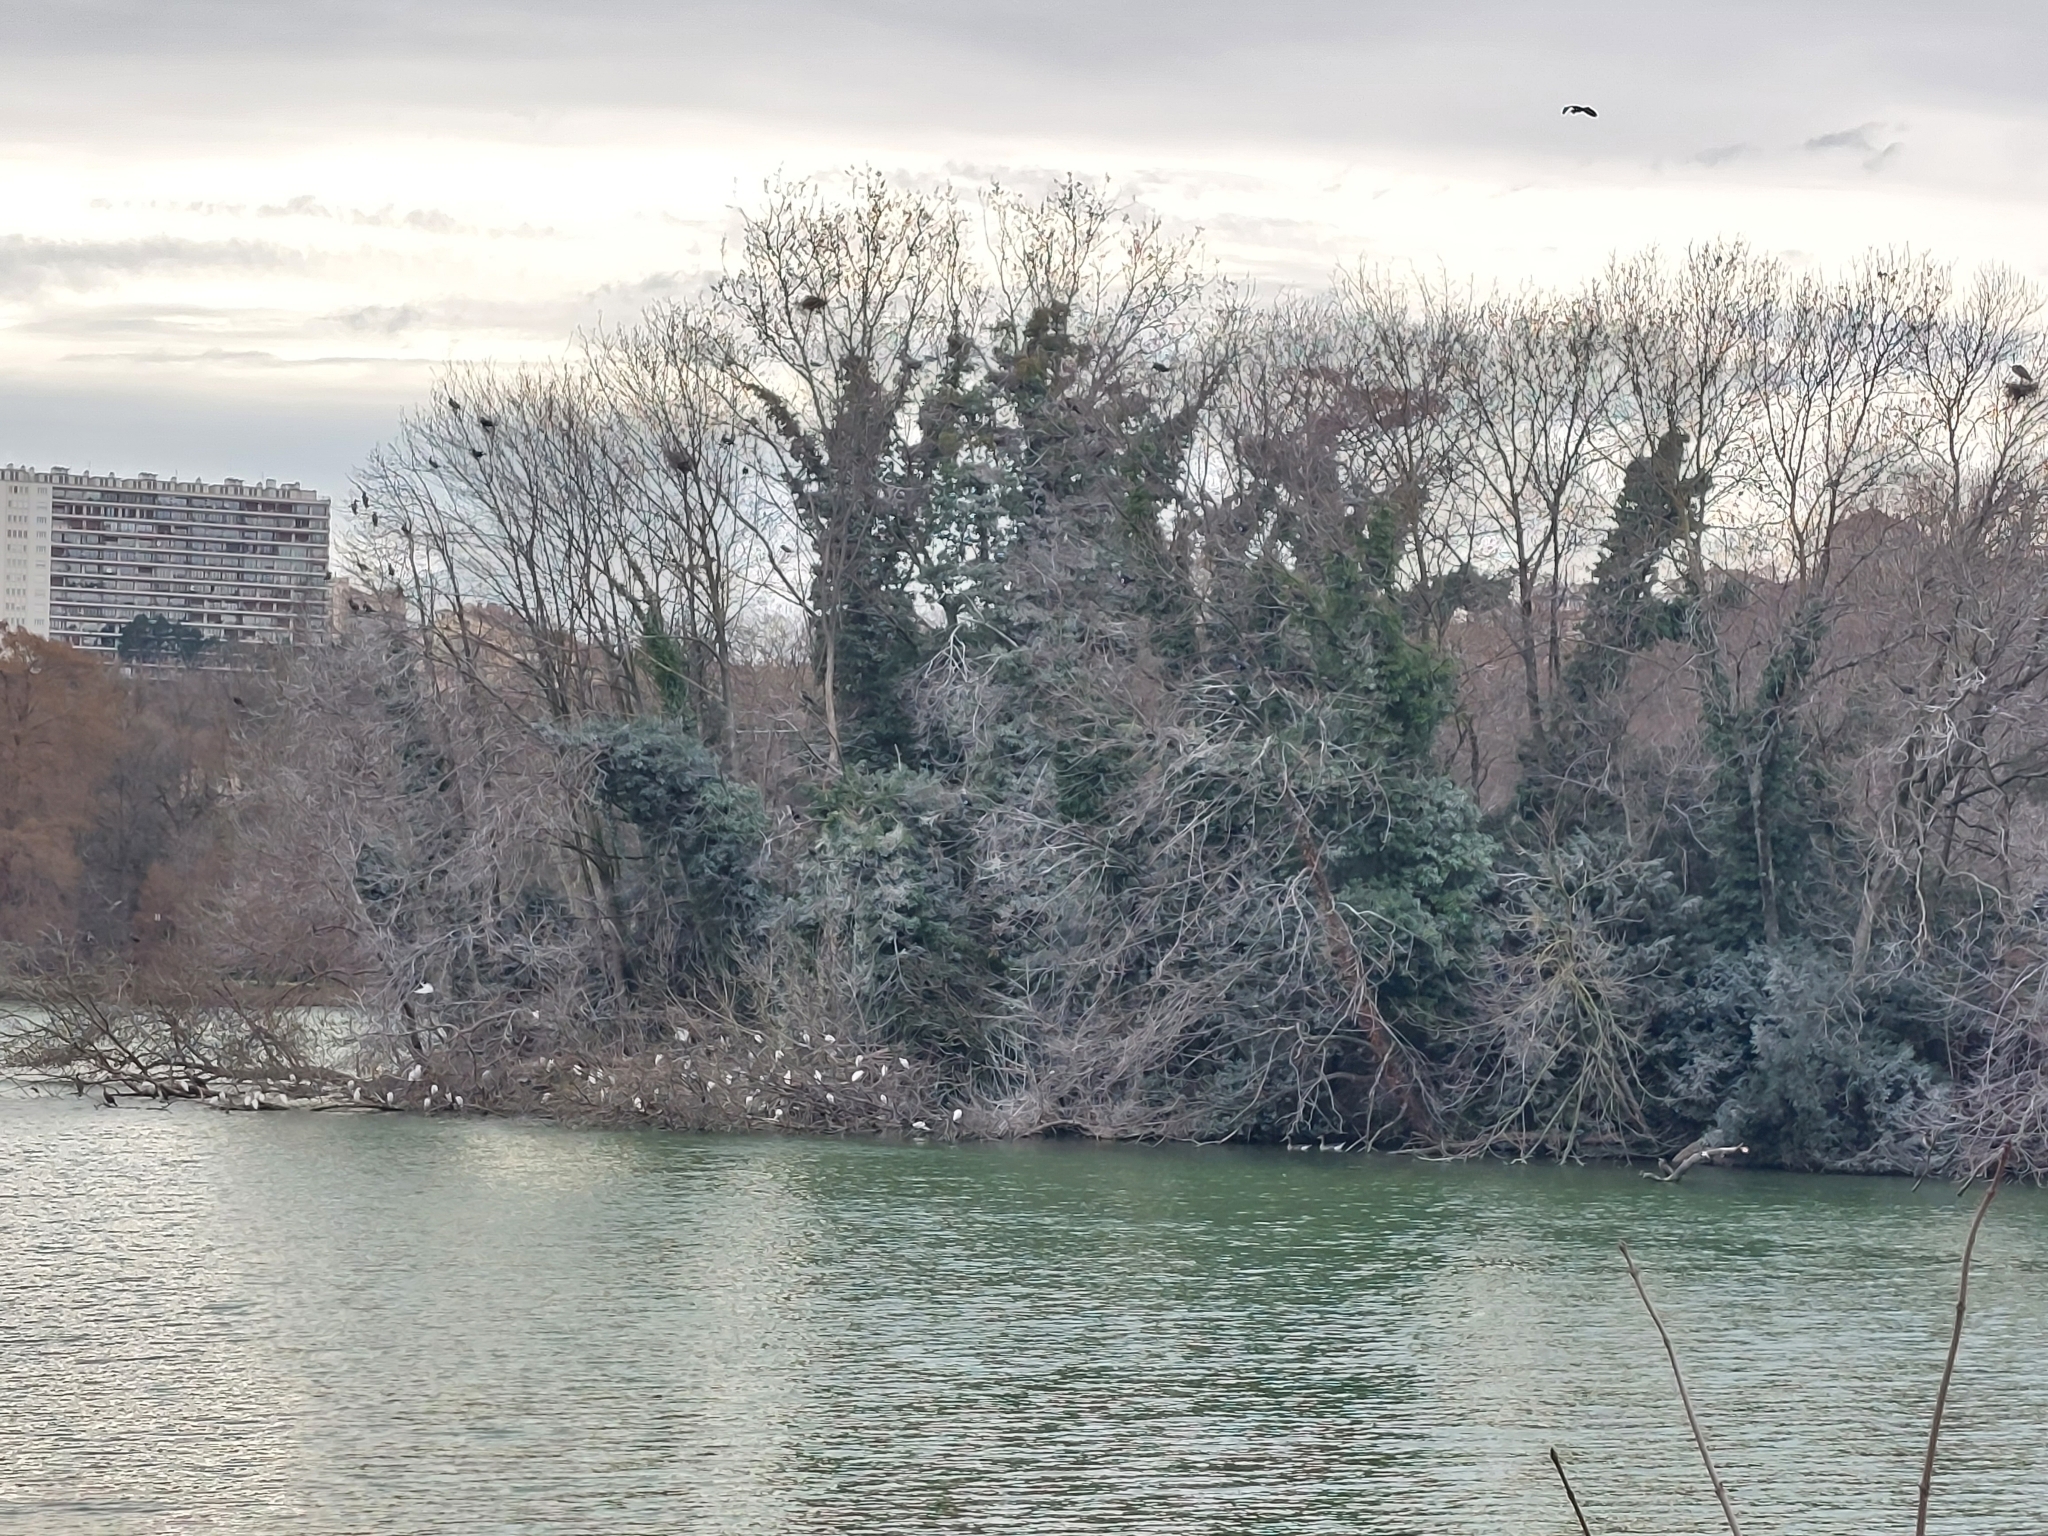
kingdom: Animalia
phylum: Chordata
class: Aves
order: Pelecaniformes
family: Ardeidae
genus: Bubulcus
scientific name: Bubulcus ibis
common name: Cattle egret
